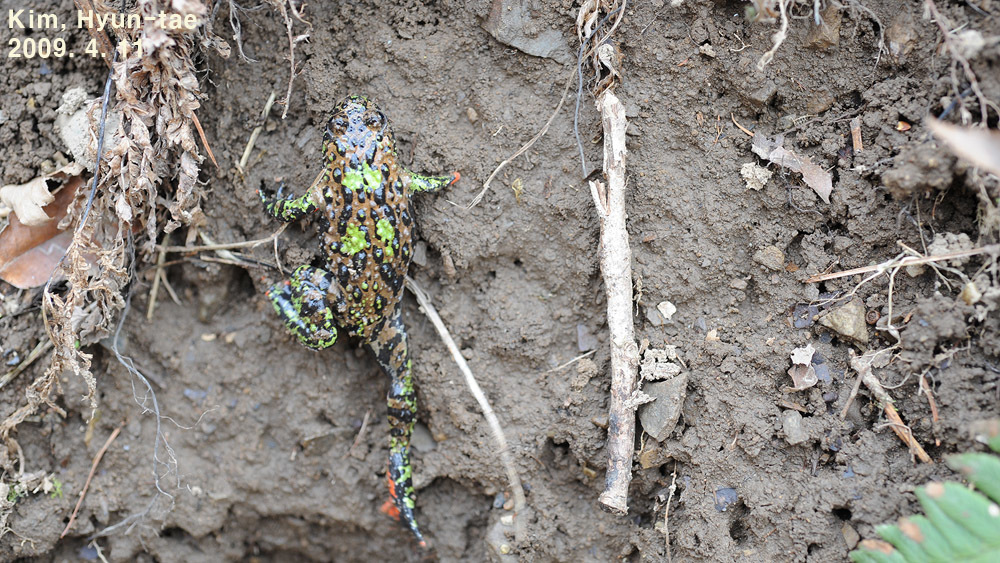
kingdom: Animalia
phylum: Chordata
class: Amphibia
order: Anura
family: Bombinatoridae
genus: Bombina
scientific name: Bombina orientalis
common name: Oriental firebelly toad
